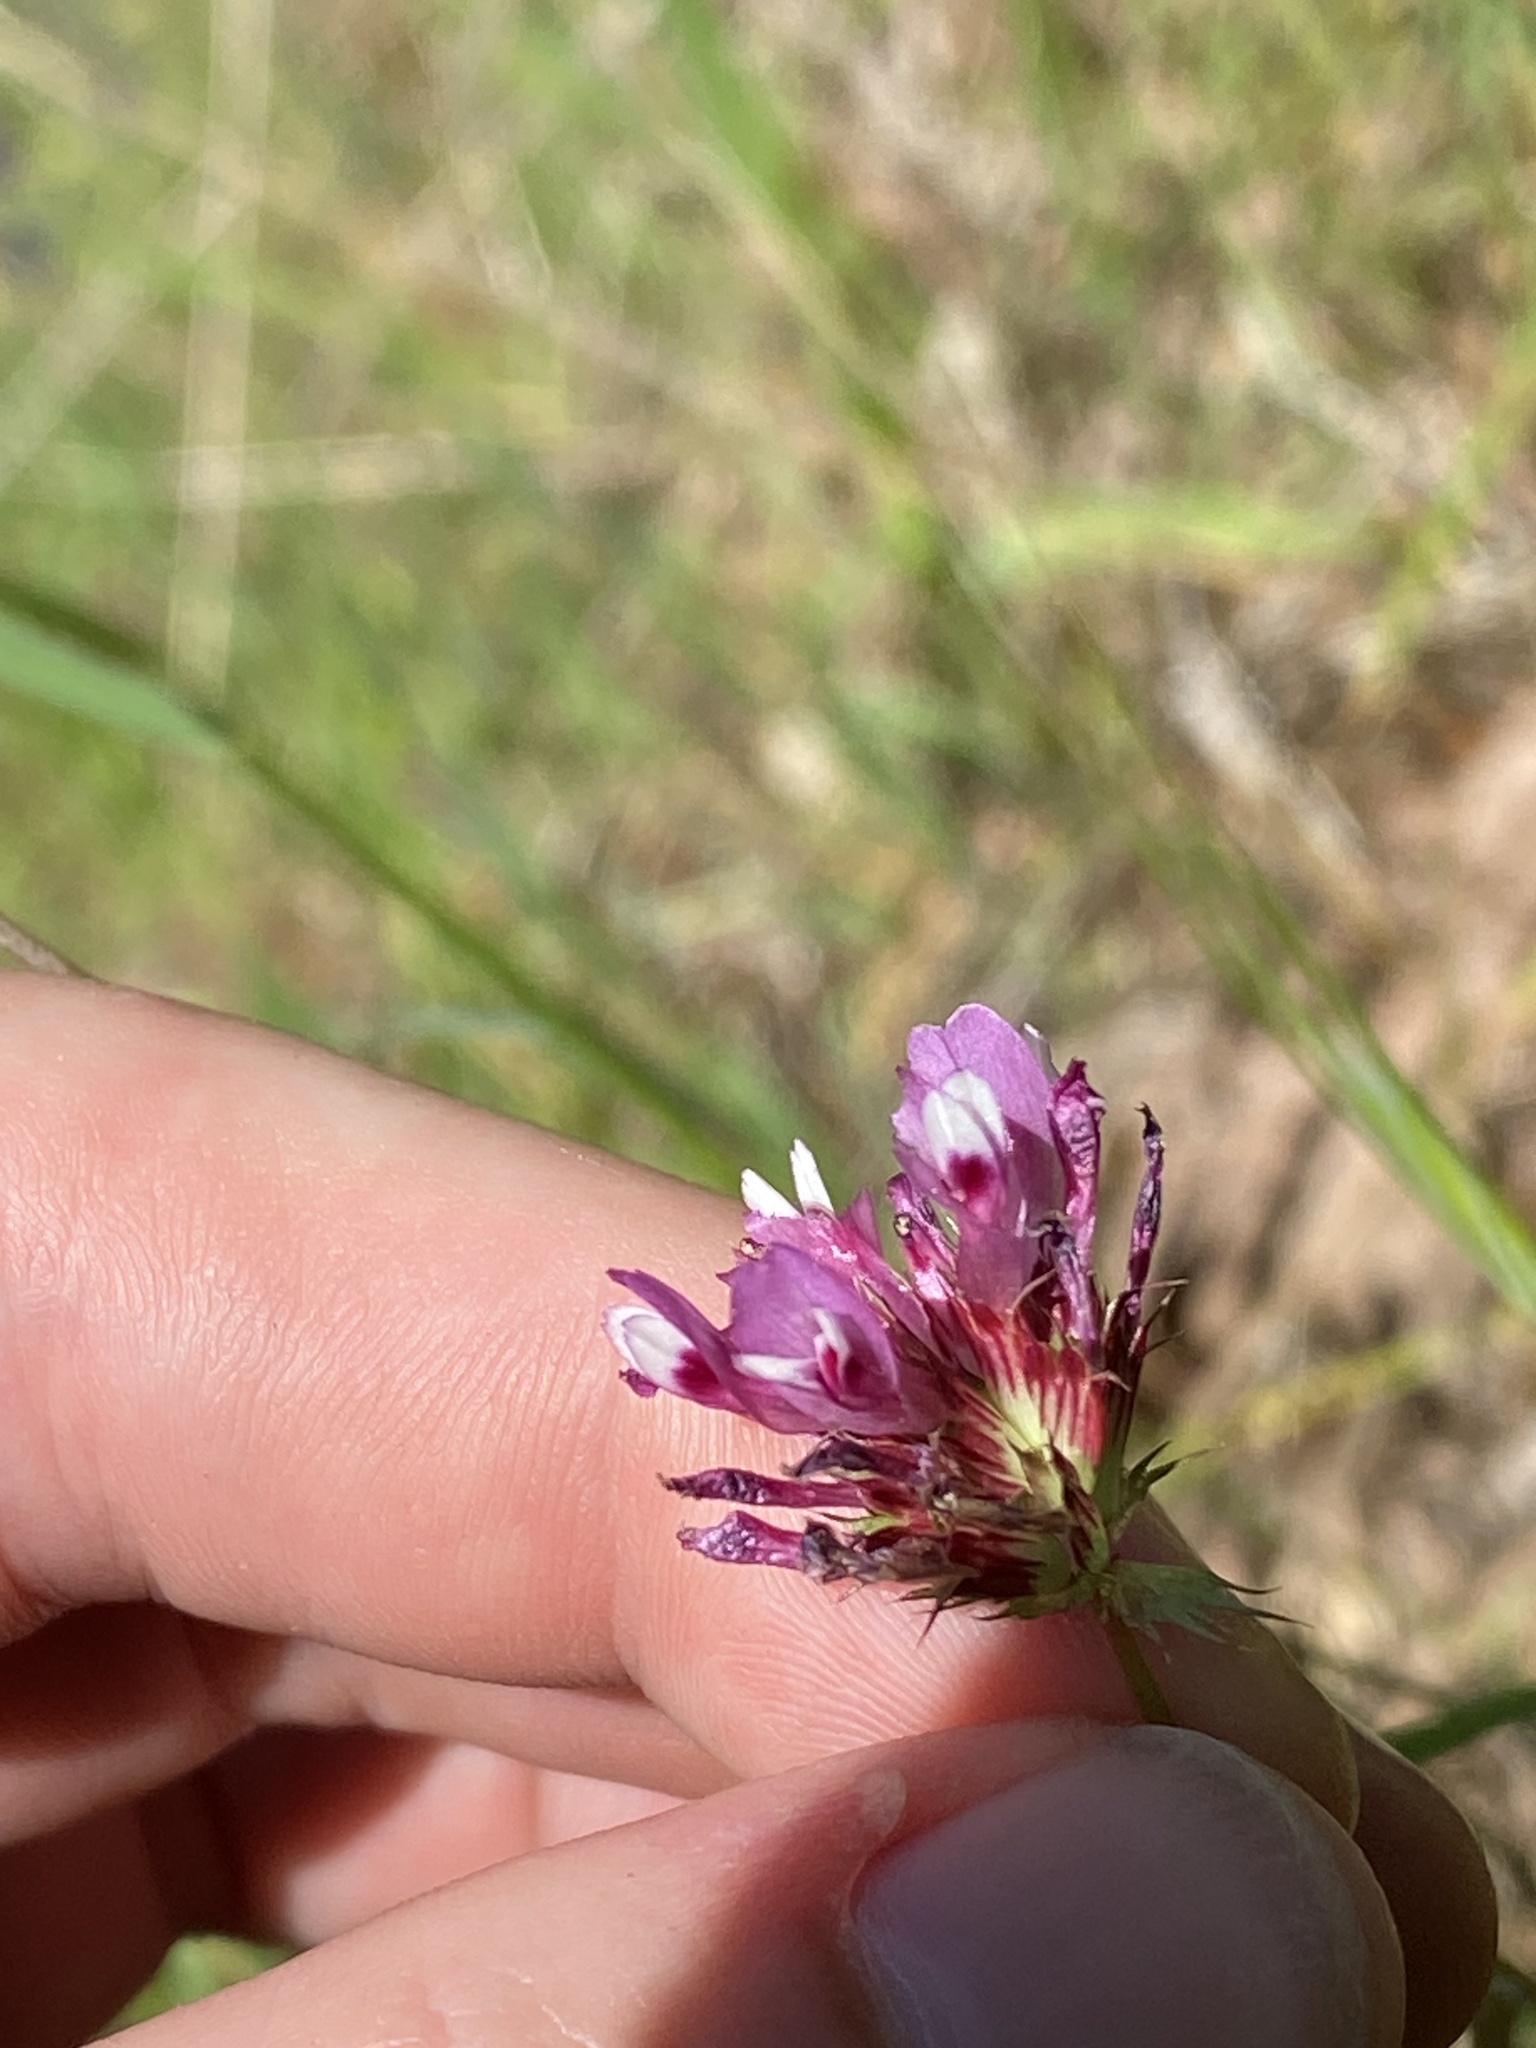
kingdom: Plantae
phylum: Tracheophyta
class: Magnoliopsida
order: Fabales
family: Fabaceae
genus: Trifolium
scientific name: Trifolium willdenovii
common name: Tomcat clover
